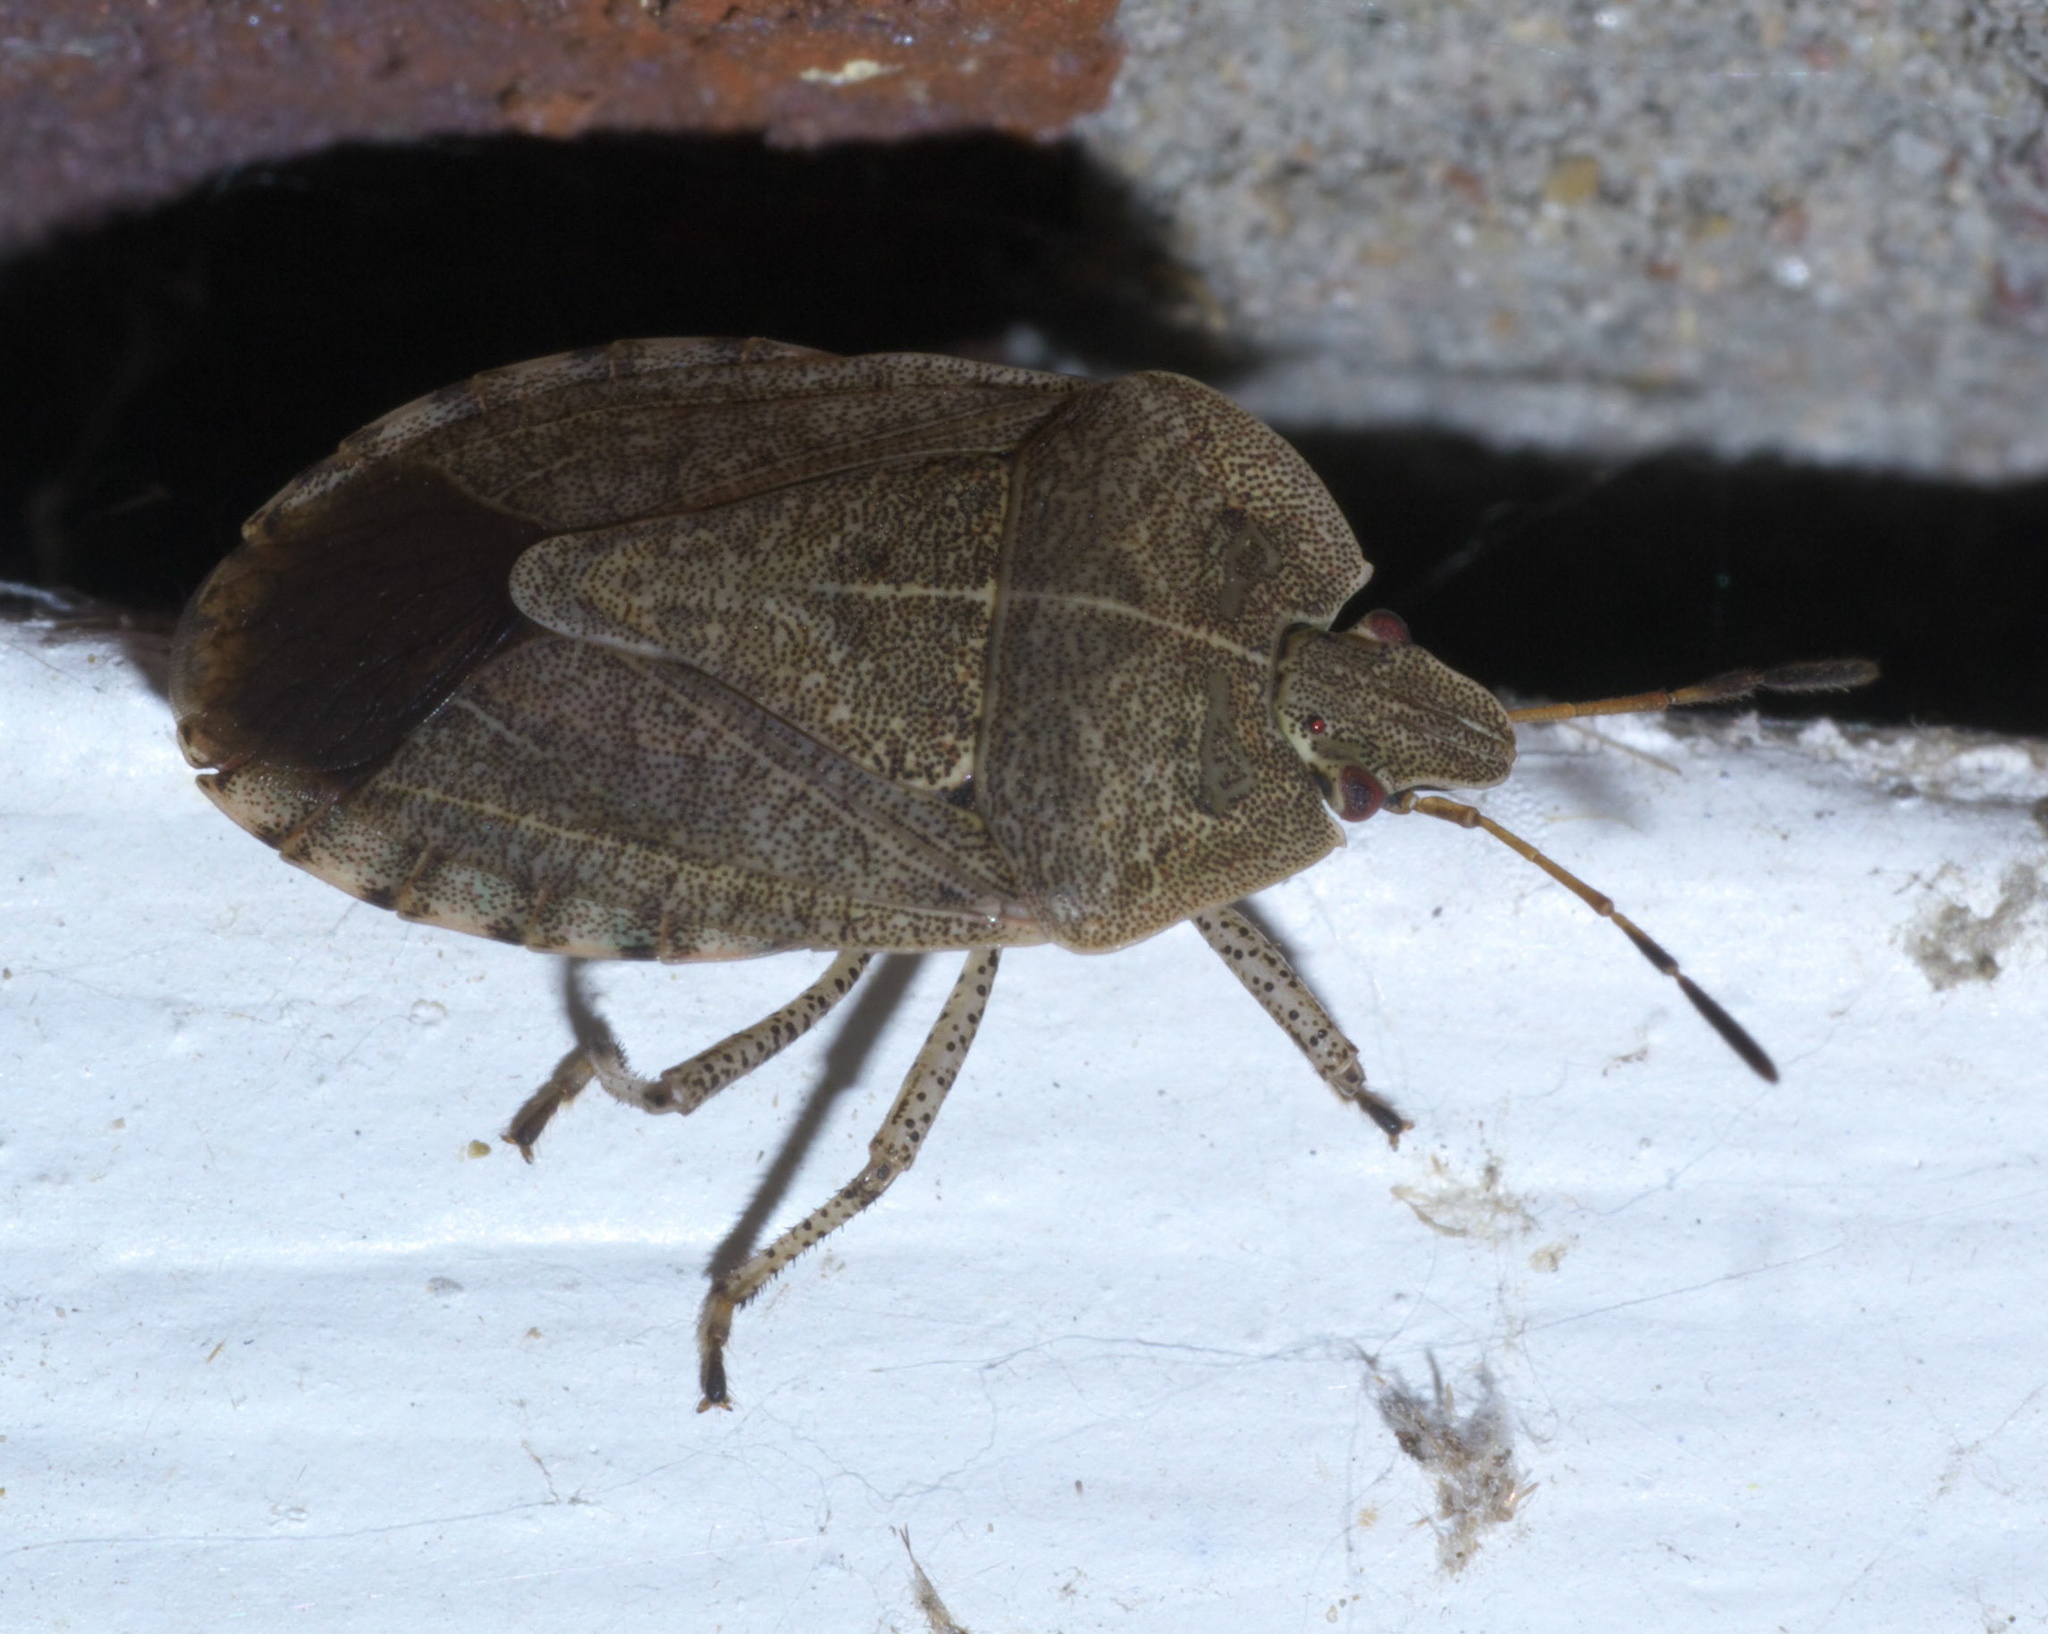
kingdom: Animalia
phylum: Arthropoda
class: Insecta
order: Hemiptera
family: Pentatomidae
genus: Menecles
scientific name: Menecles insertus
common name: Elf shoe stink bug
